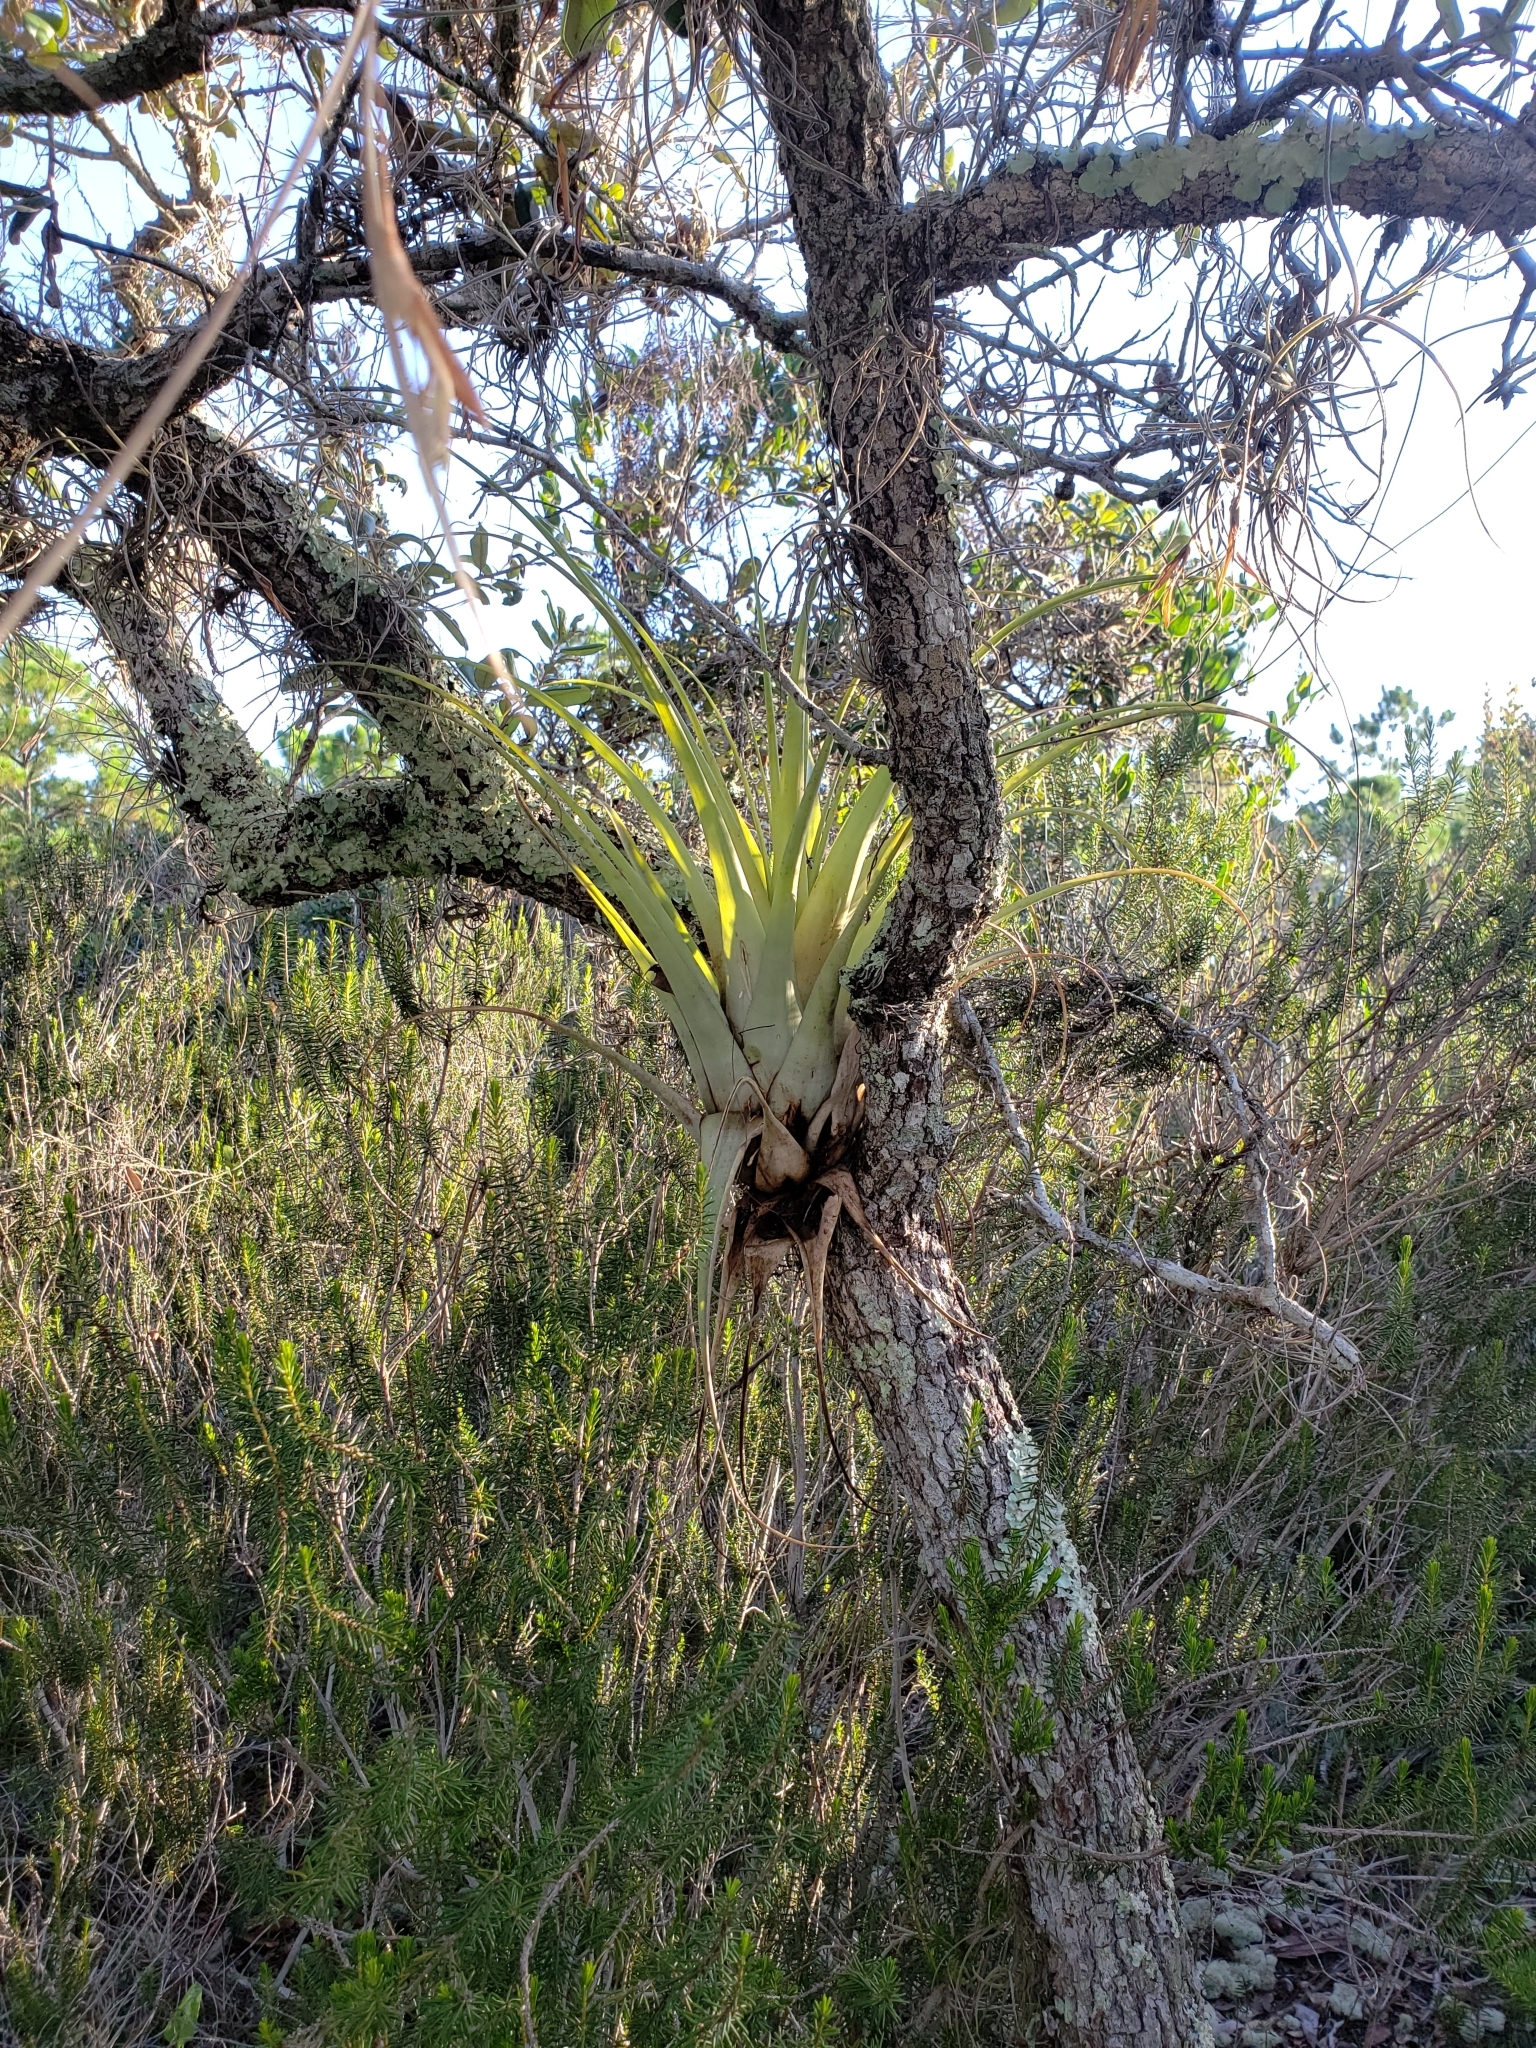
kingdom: Plantae
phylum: Tracheophyta
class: Liliopsida
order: Poales
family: Bromeliaceae
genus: Tillandsia
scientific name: Tillandsia utriculata
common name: Wild pine
